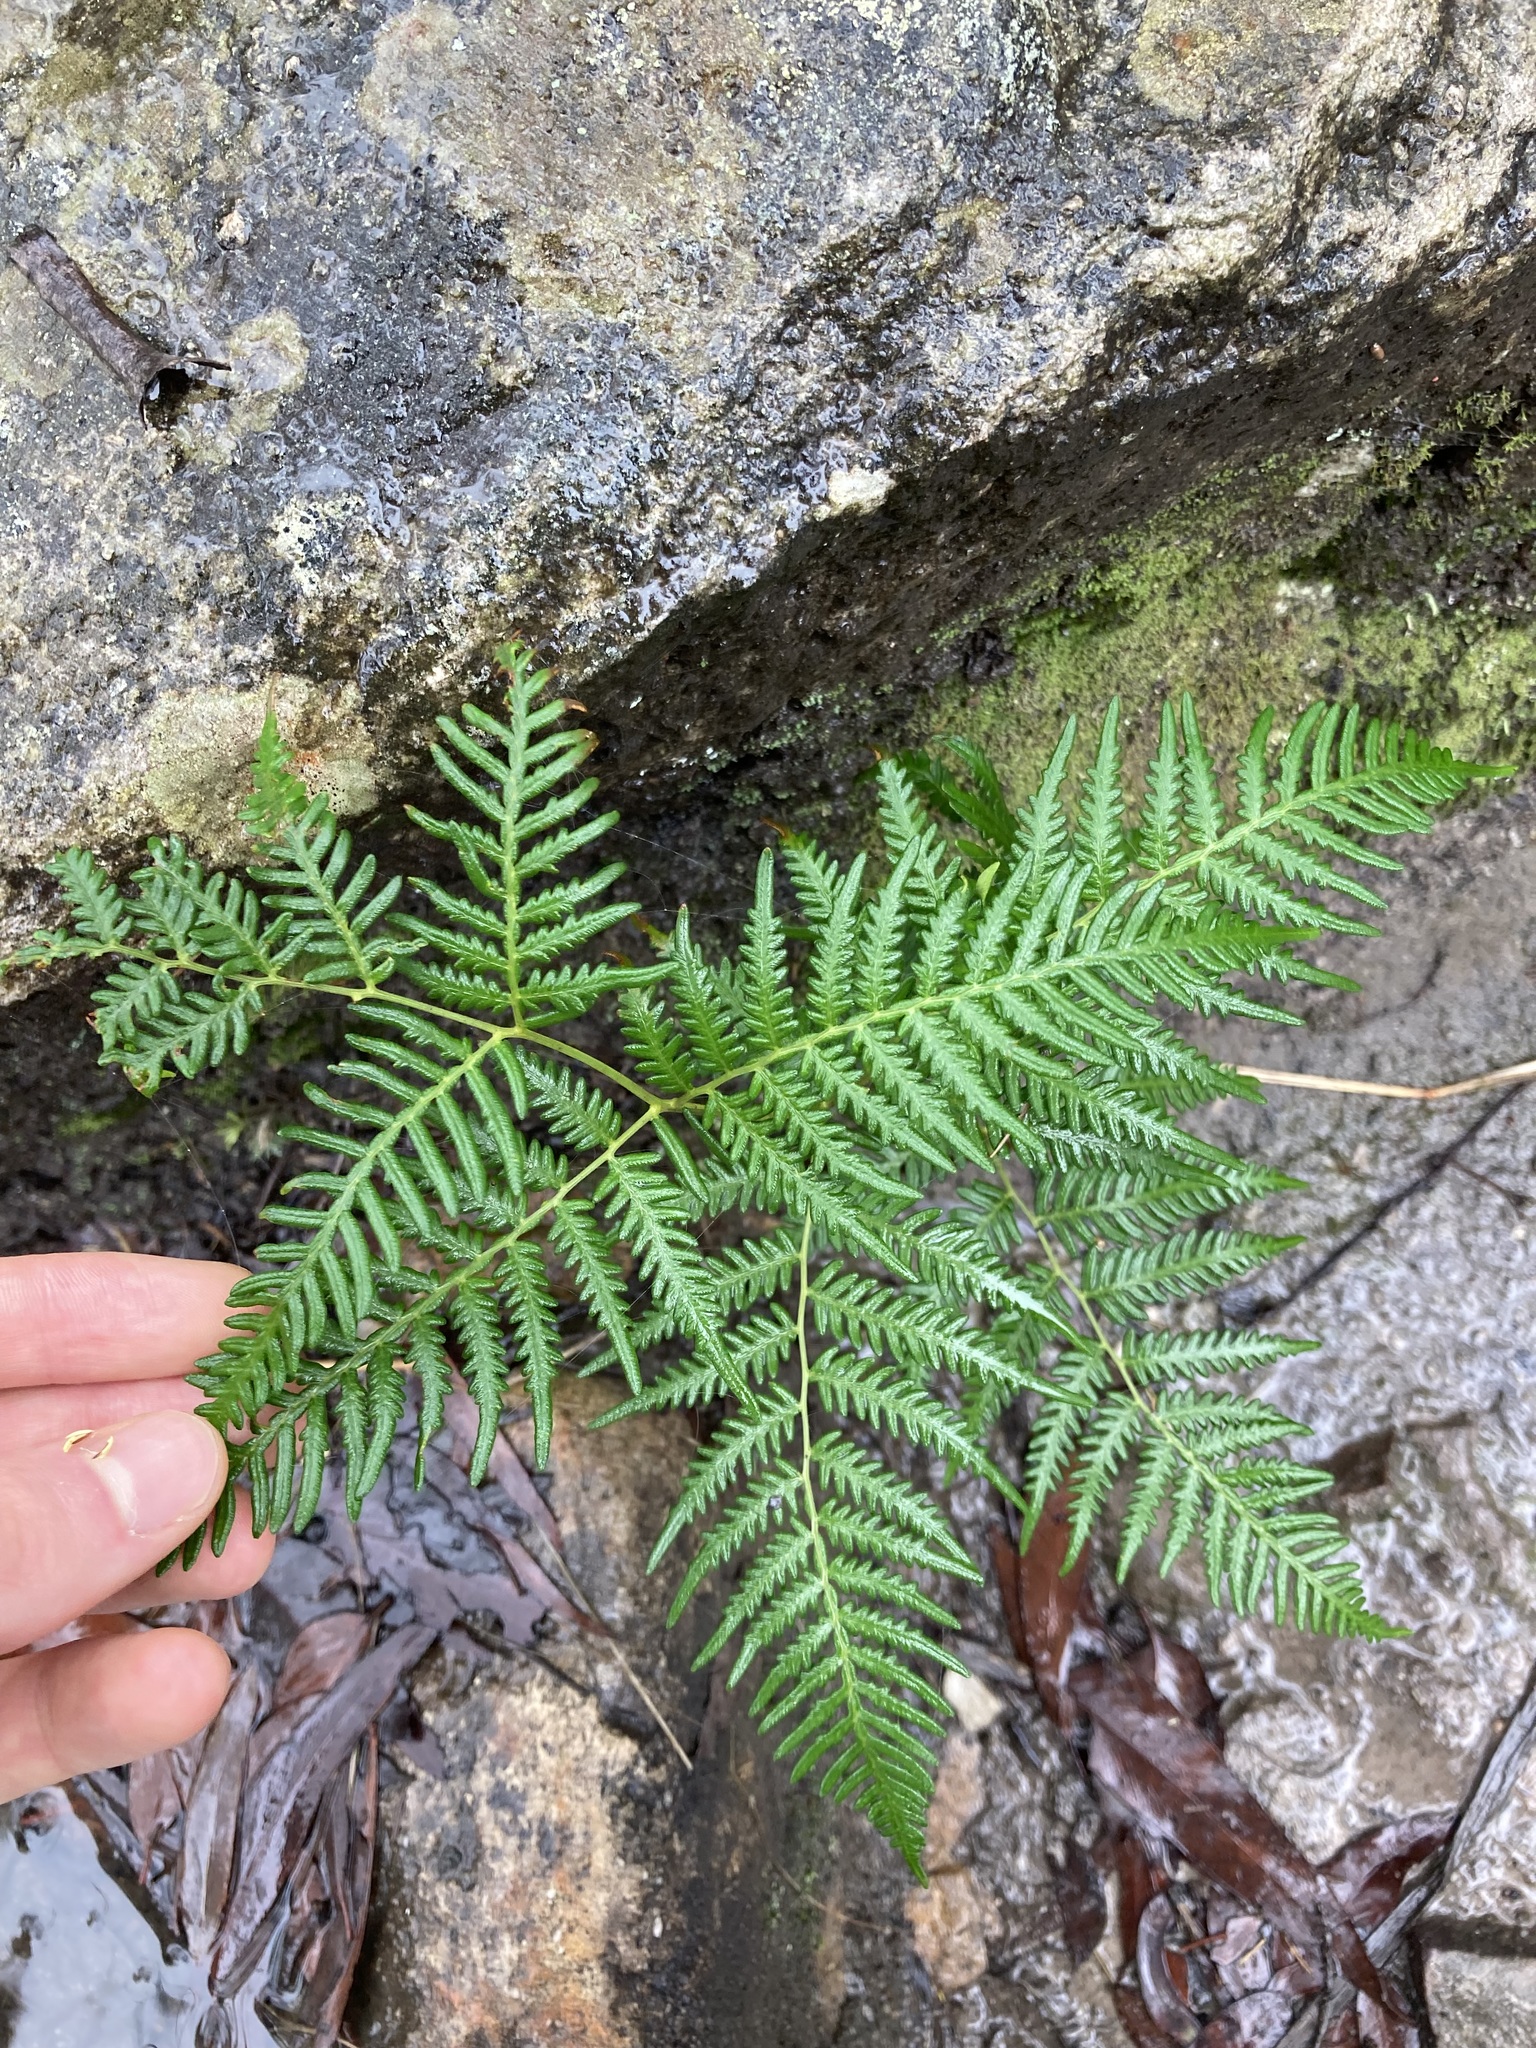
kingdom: Plantae
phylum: Tracheophyta
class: Polypodiopsida
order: Polypodiales
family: Dennstaedtiaceae
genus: Pteridium
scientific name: Pteridium esculentum
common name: Bracken fern
